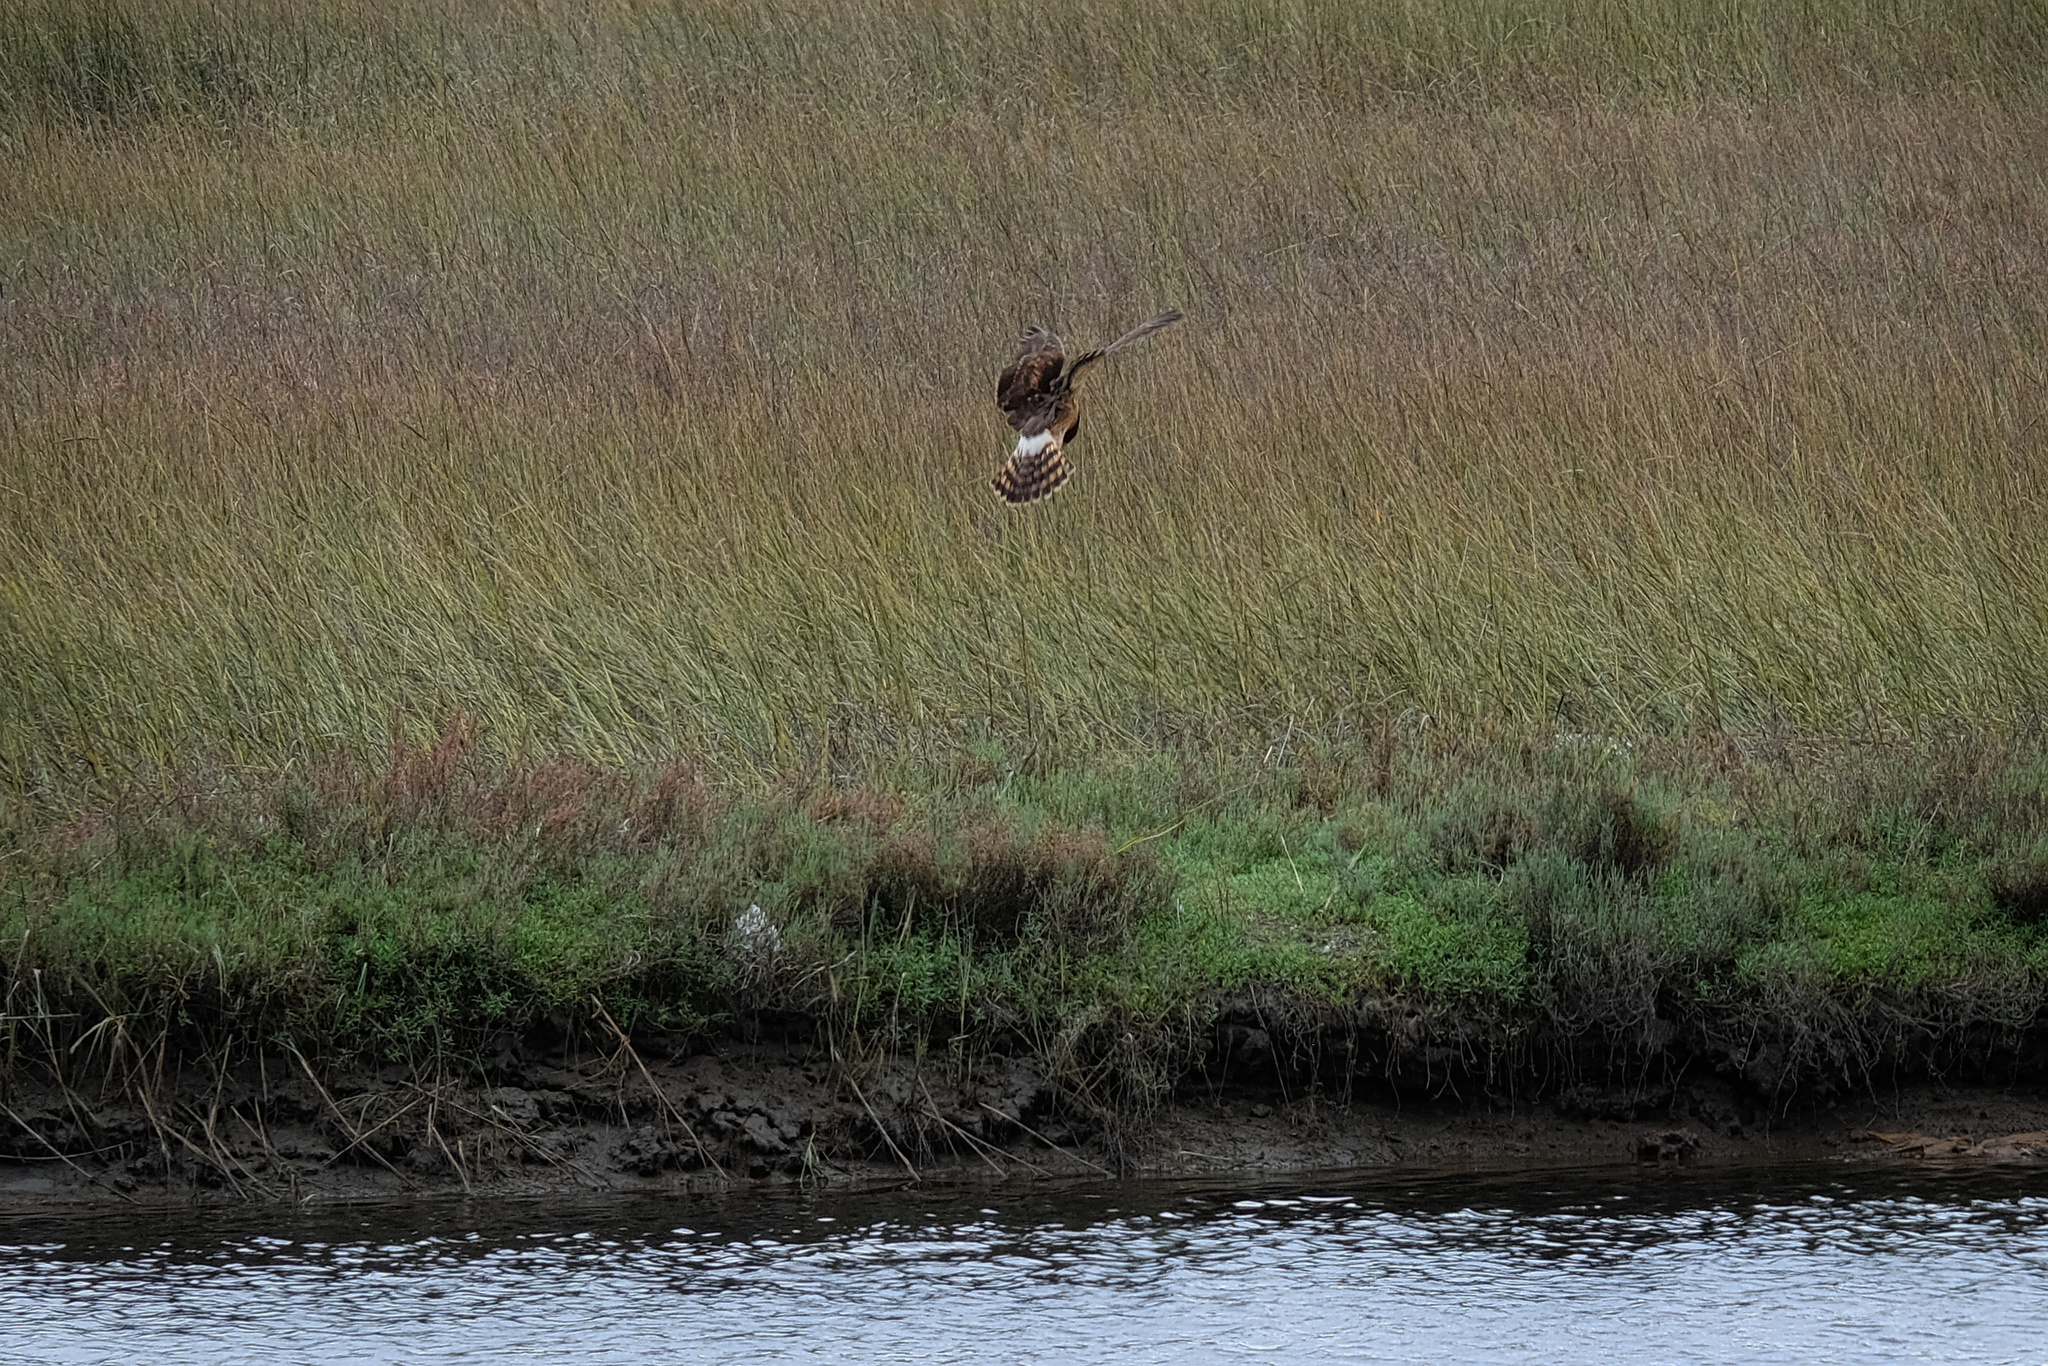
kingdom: Animalia
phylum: Chordata
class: Aves
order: Accipitriformes
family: Accipitridae
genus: Circus
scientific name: Circus cyaneus
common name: Hen harrier
